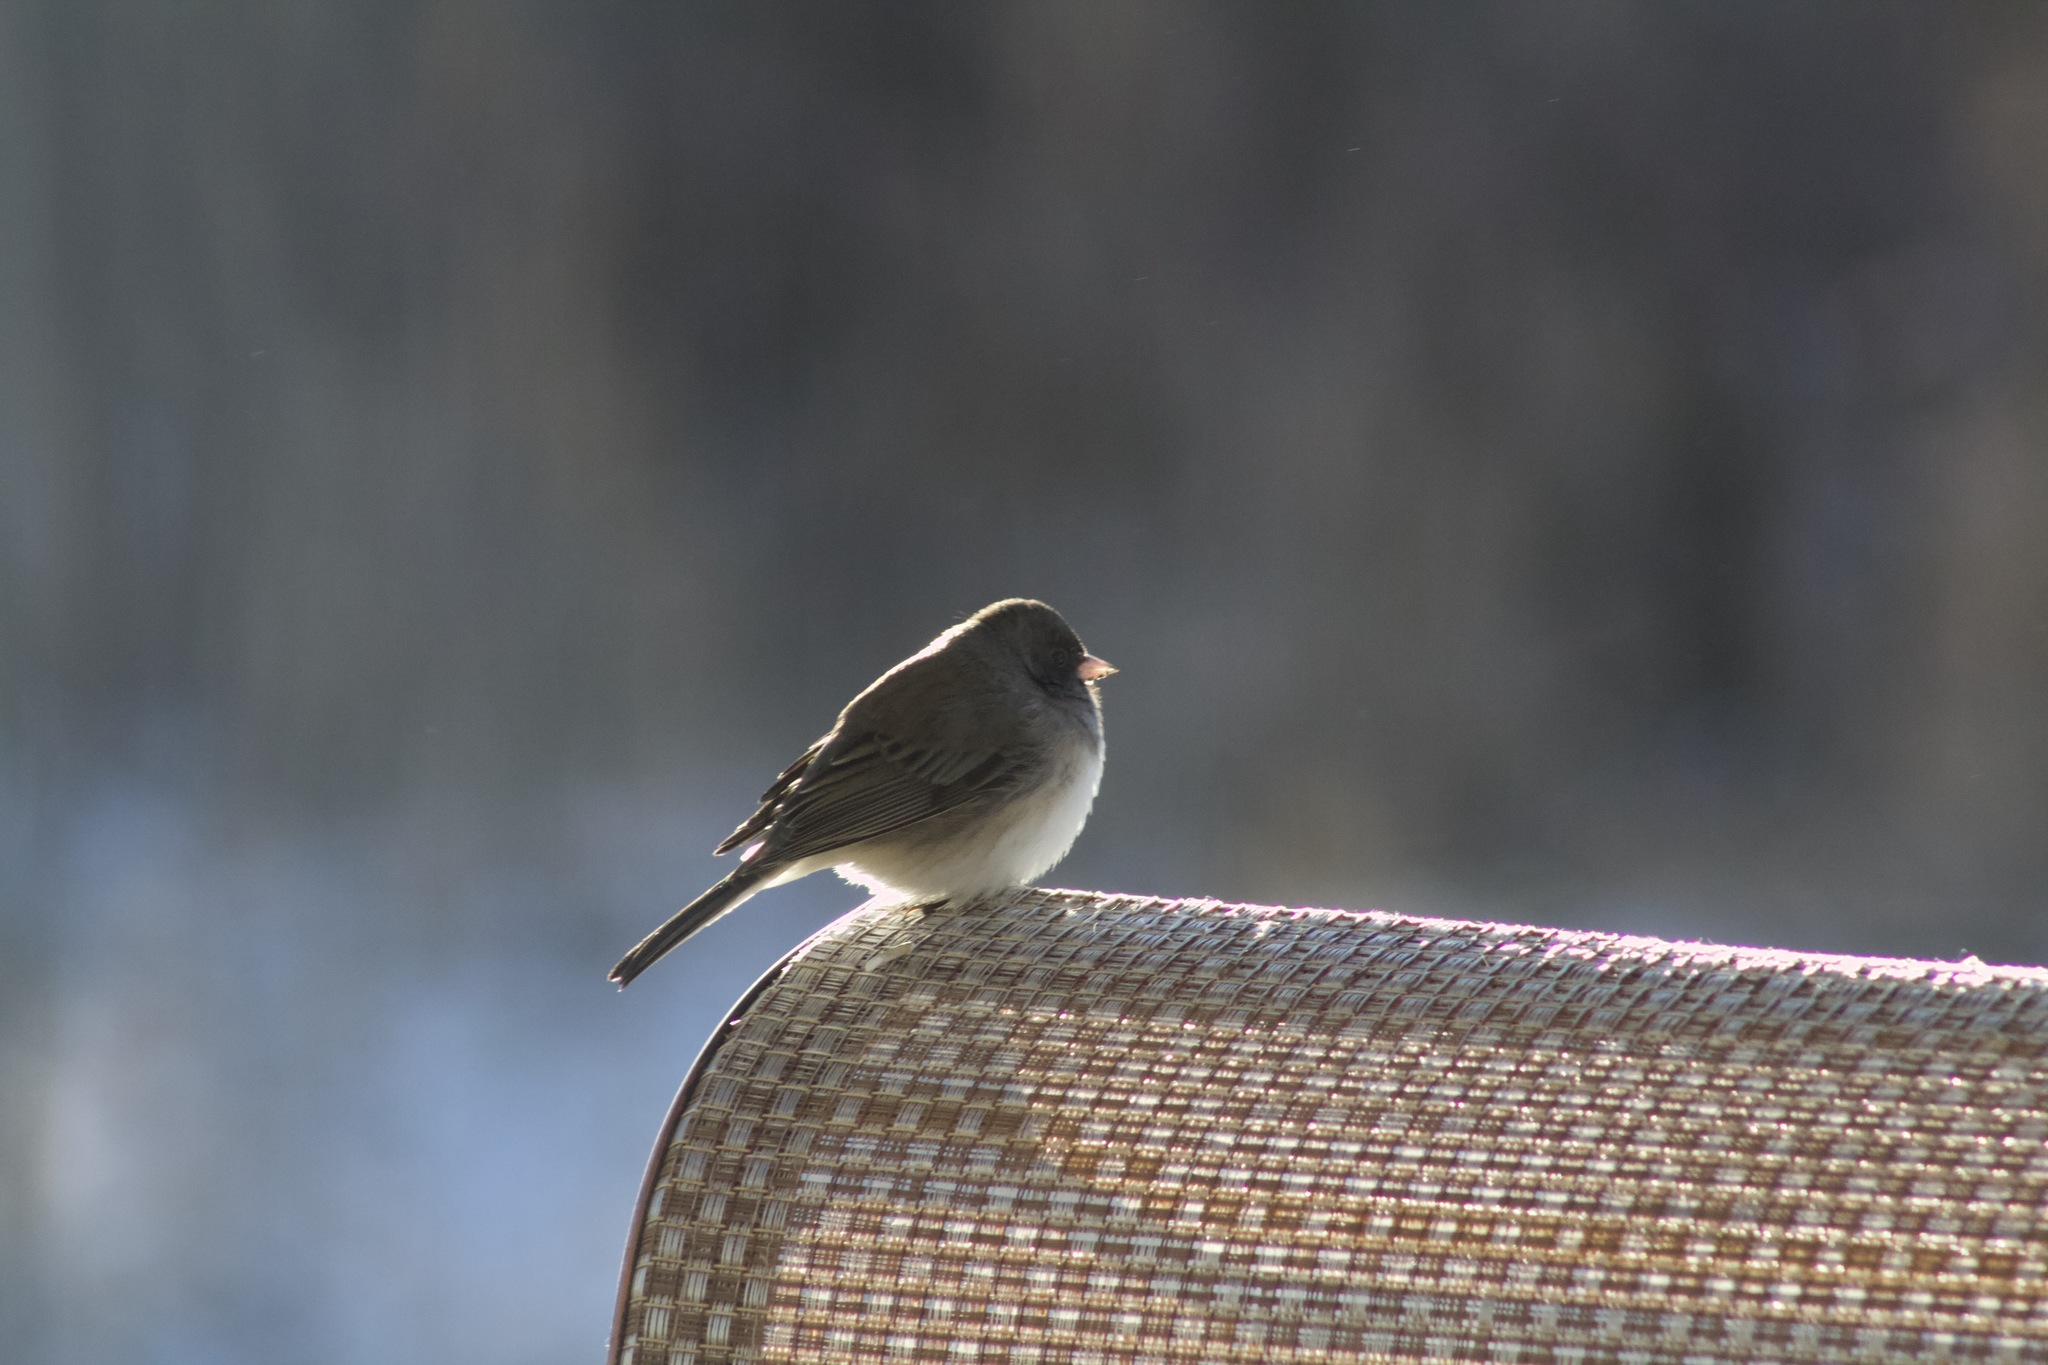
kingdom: Animalia
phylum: Chordata
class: Aves
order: Passeriformes
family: Passerellidae
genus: Junco
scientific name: Junco hyemalis
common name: Dark-eyed junco
